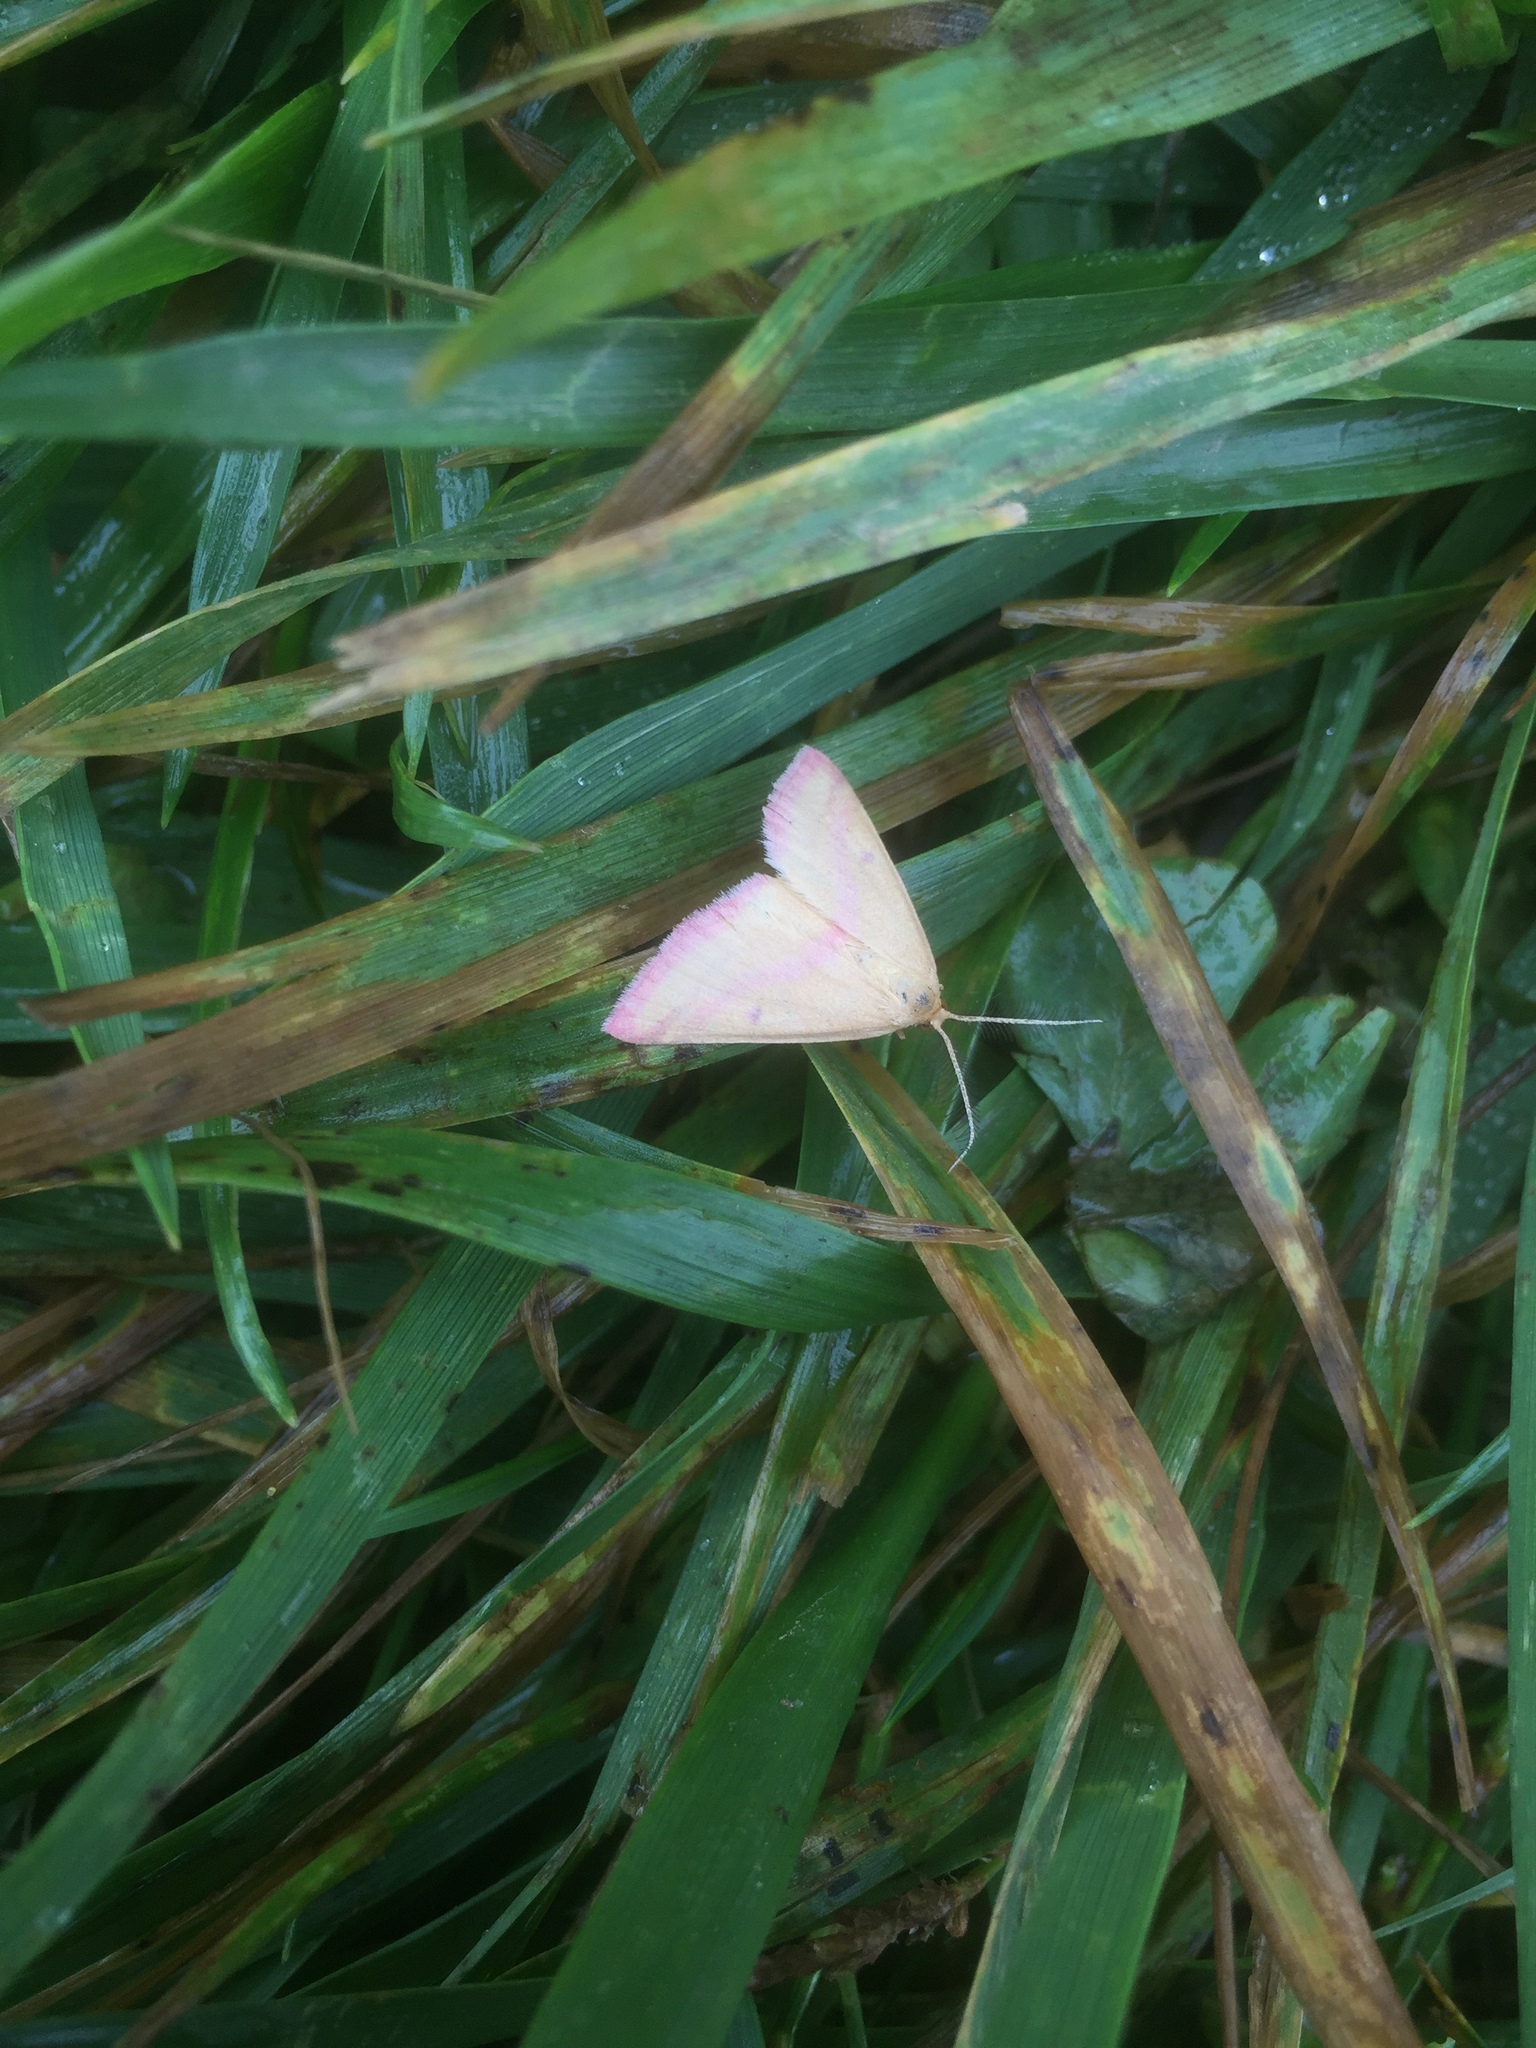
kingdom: Animalia
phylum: Arthropoda
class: Insecta
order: Lepidoptera
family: Geometridae
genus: Haematopis
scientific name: Haematopis grataria
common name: Chickweed geometer
